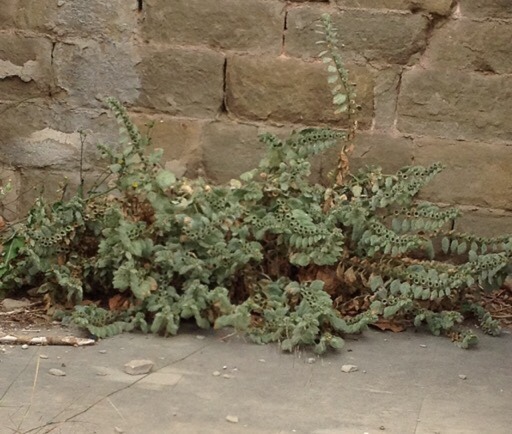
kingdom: Plantae
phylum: Tracheophyta
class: Magnoliopsida
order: Solanales
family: Solanaceae
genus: Hyoscyamus
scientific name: Hyoscyamus albus
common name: White henbane
